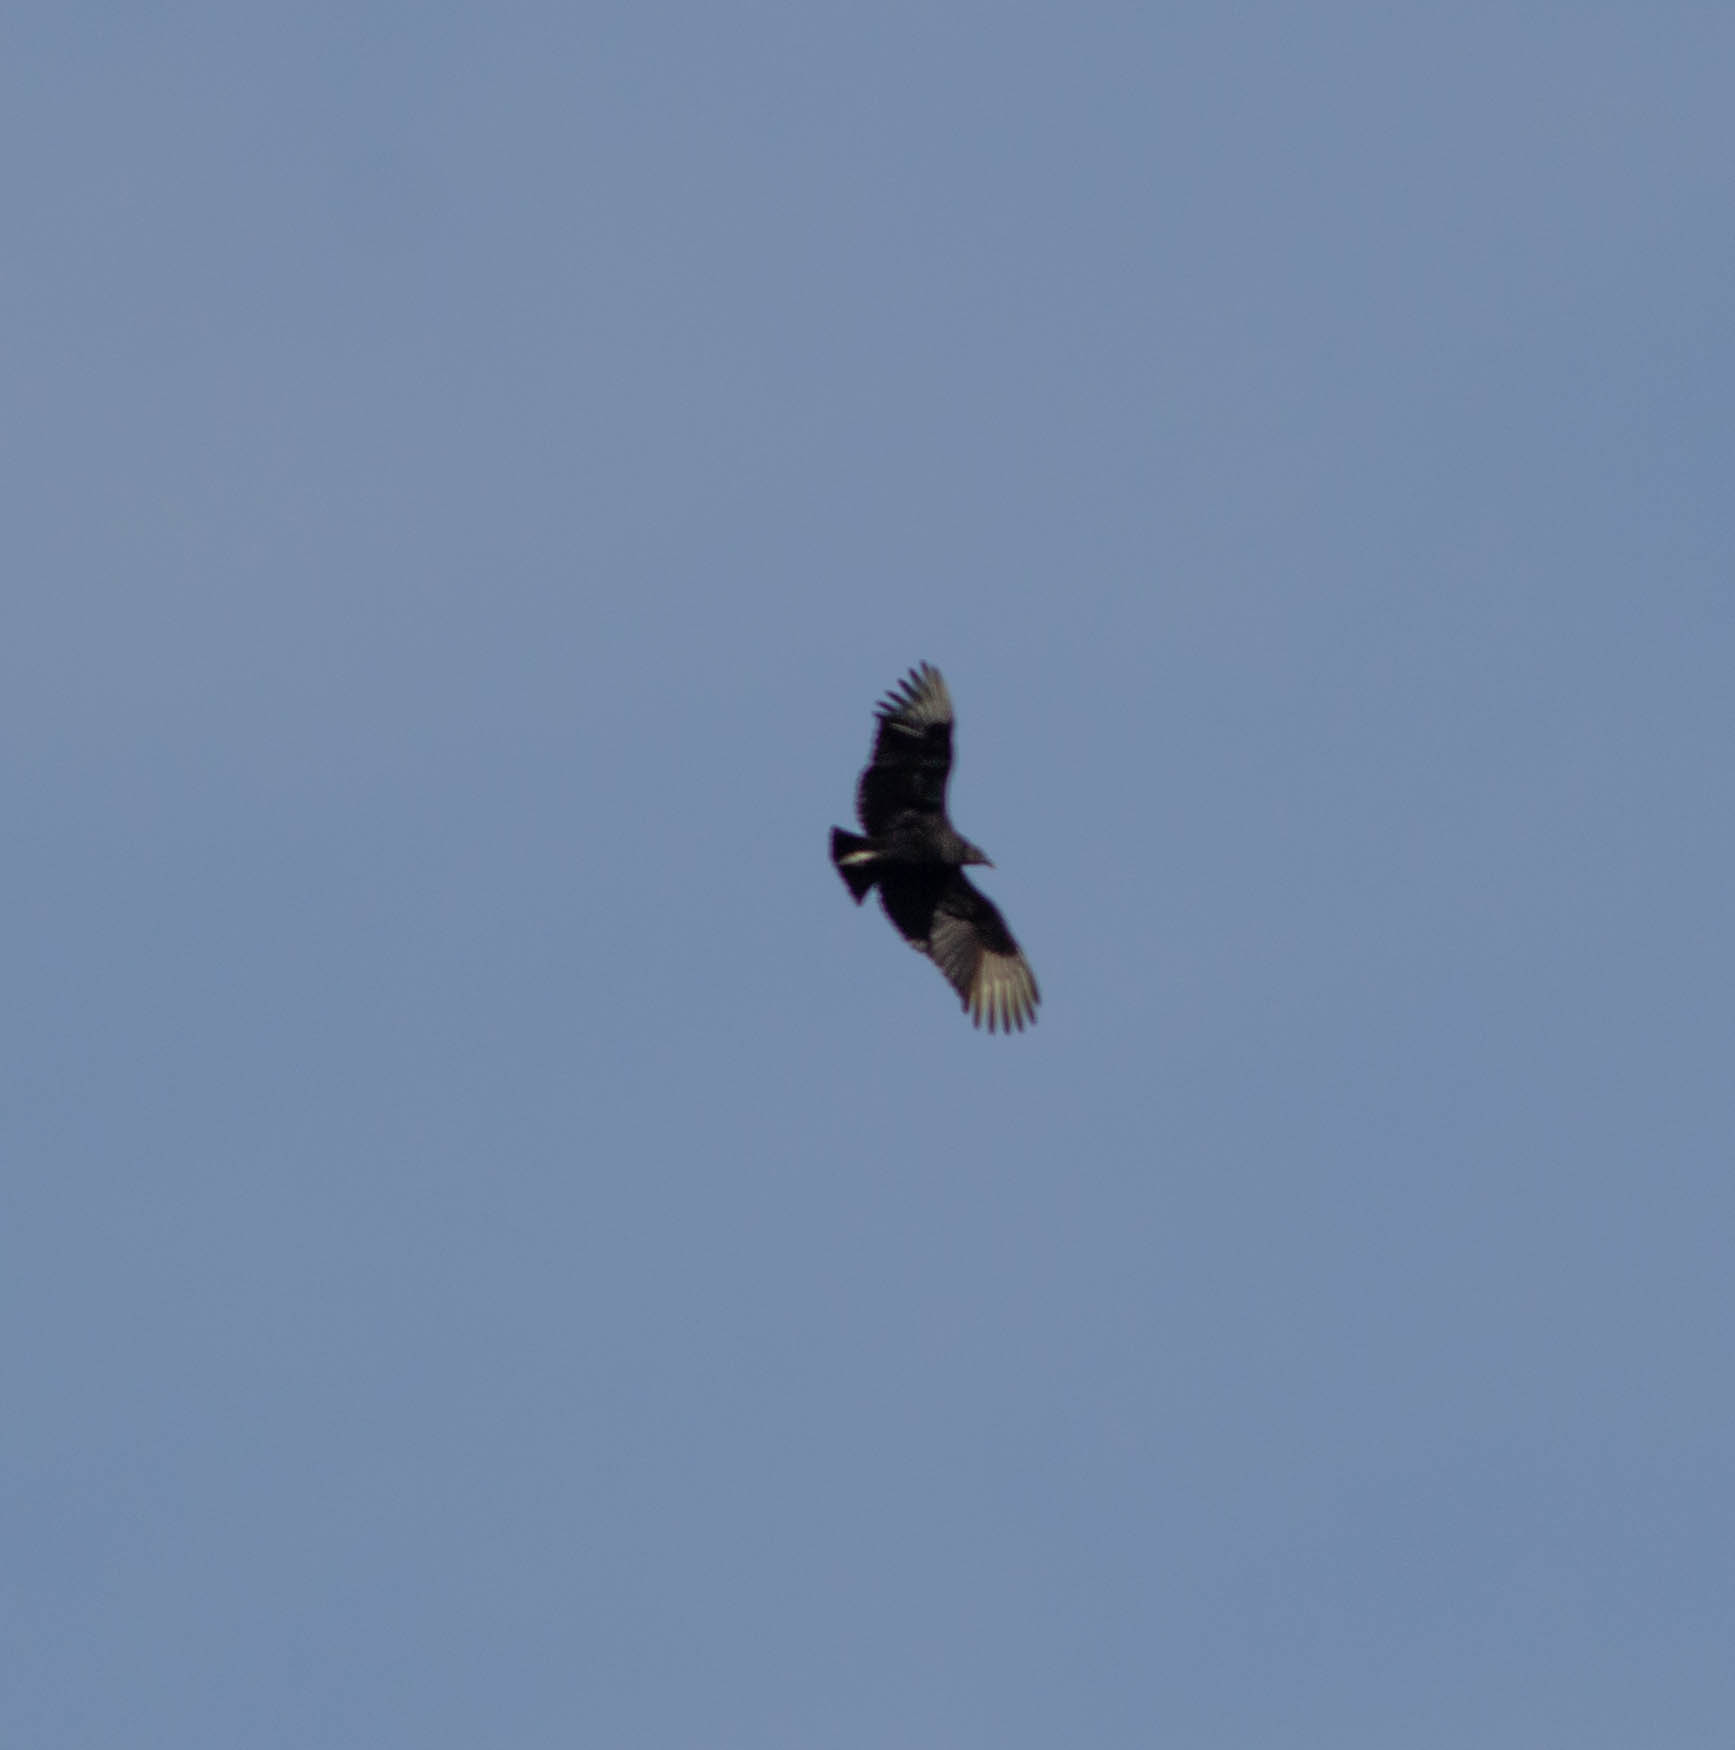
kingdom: Animalia
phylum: Chordata
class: Aves
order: Accipitriformes
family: Cathartidae
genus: Coragyps
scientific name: Coragyps atratus
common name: Black vulture
